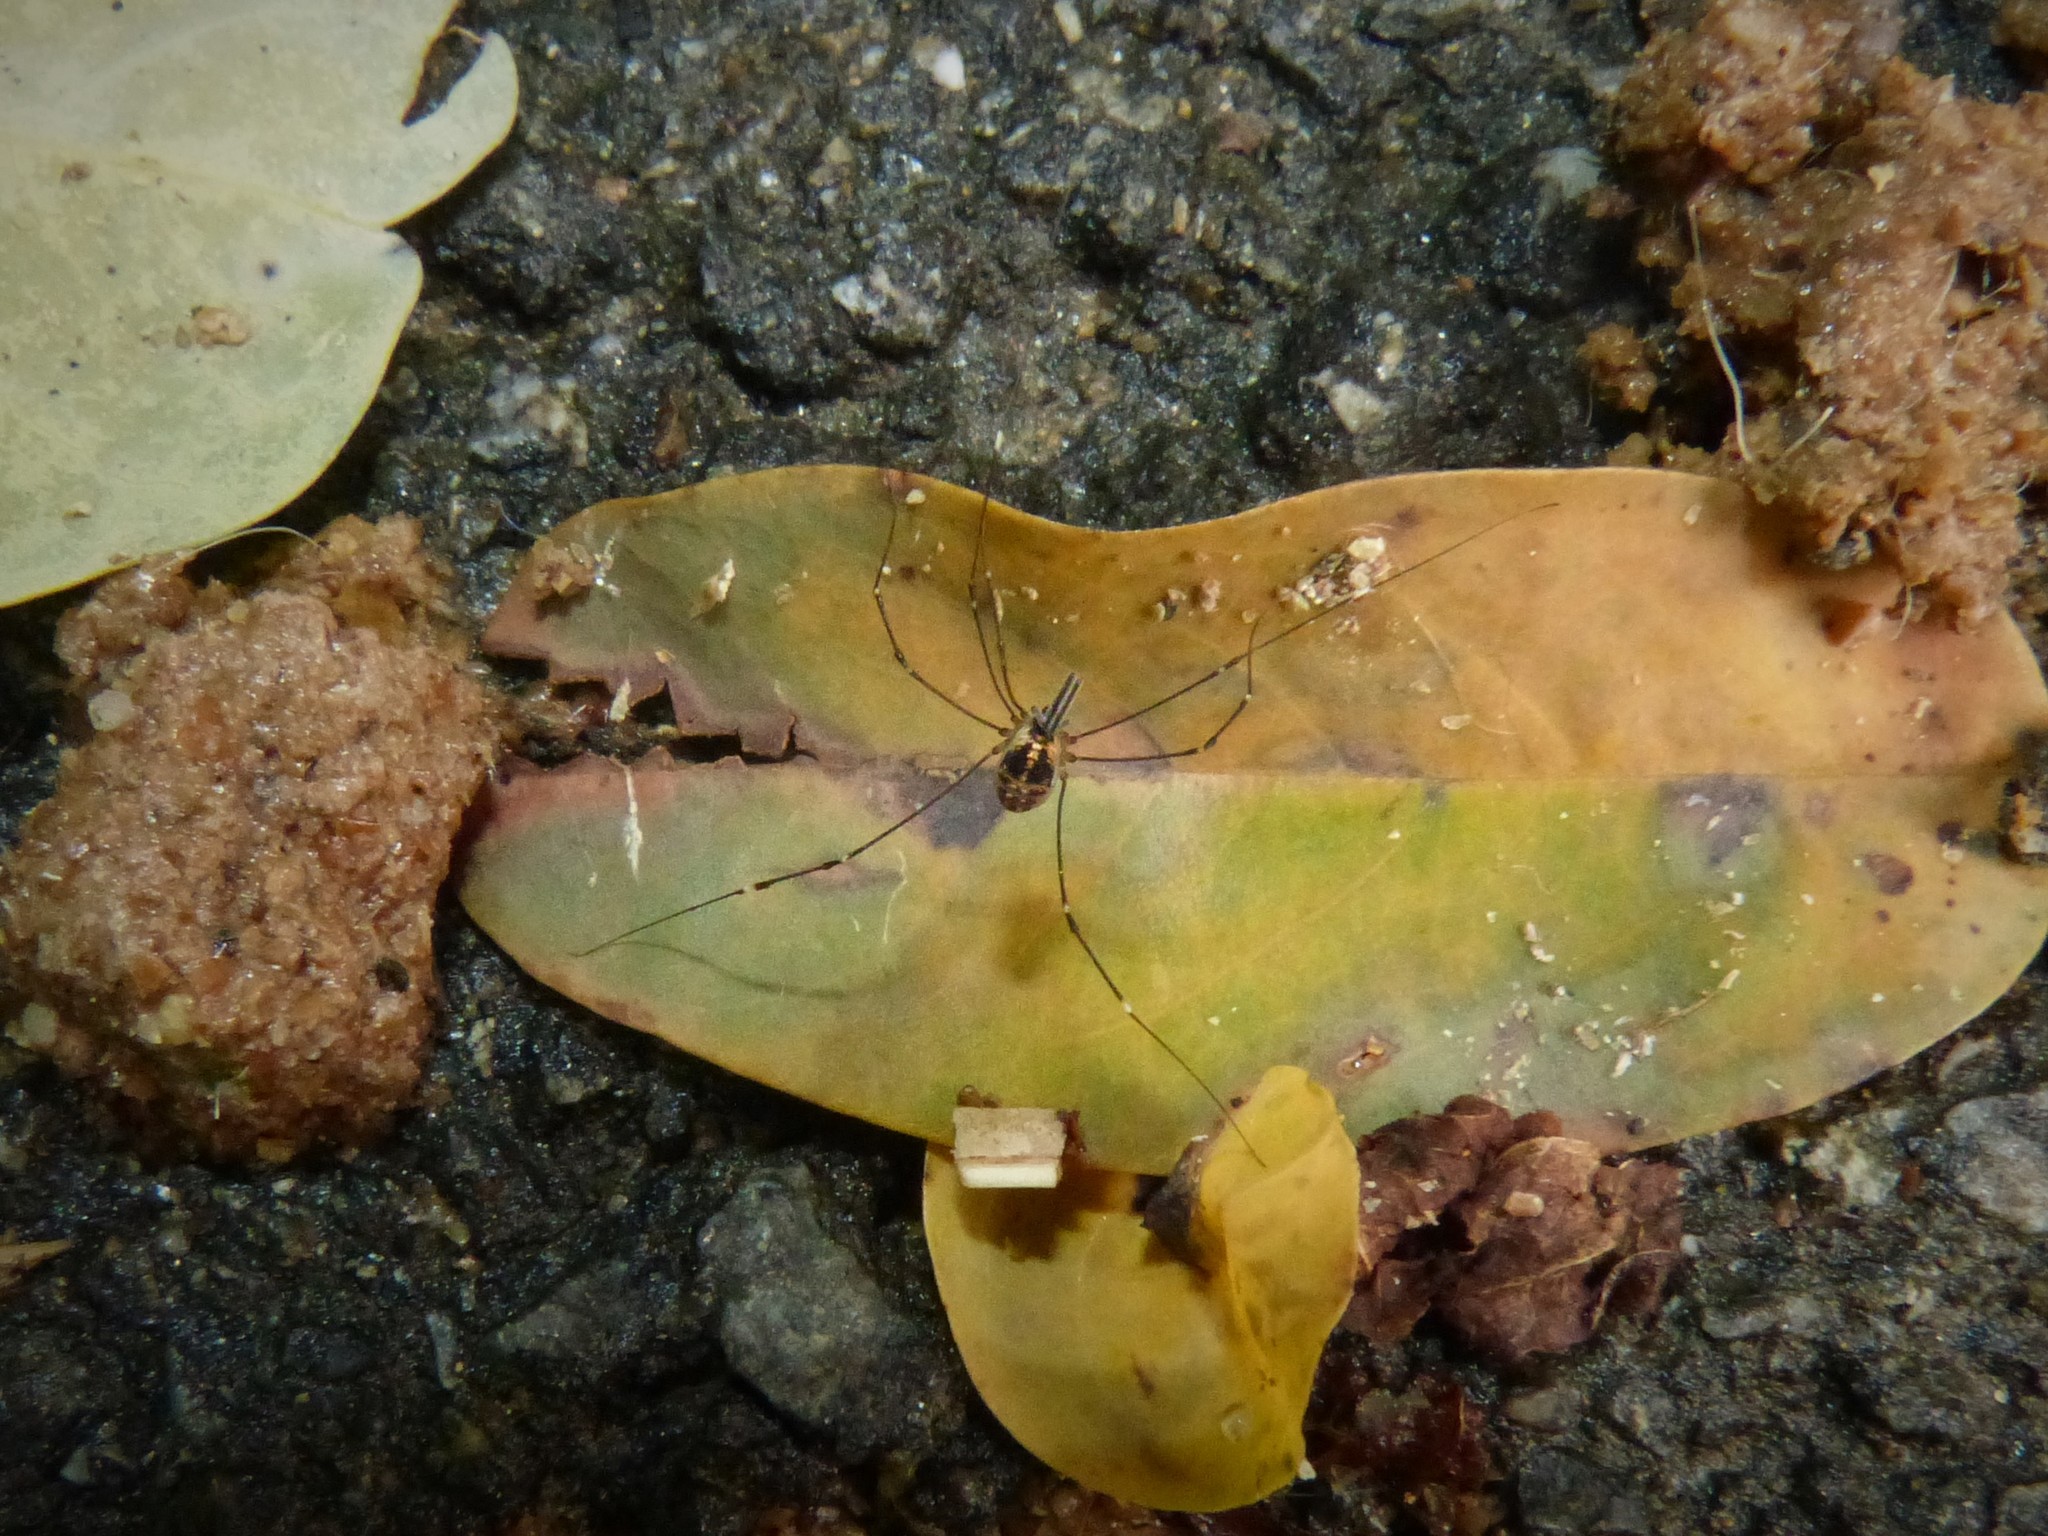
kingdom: Animalia
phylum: Arthropoda
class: Arachnida
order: Opiliones
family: Nemastomatidae
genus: Mitostoma
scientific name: Mitostoma chrysomelas
